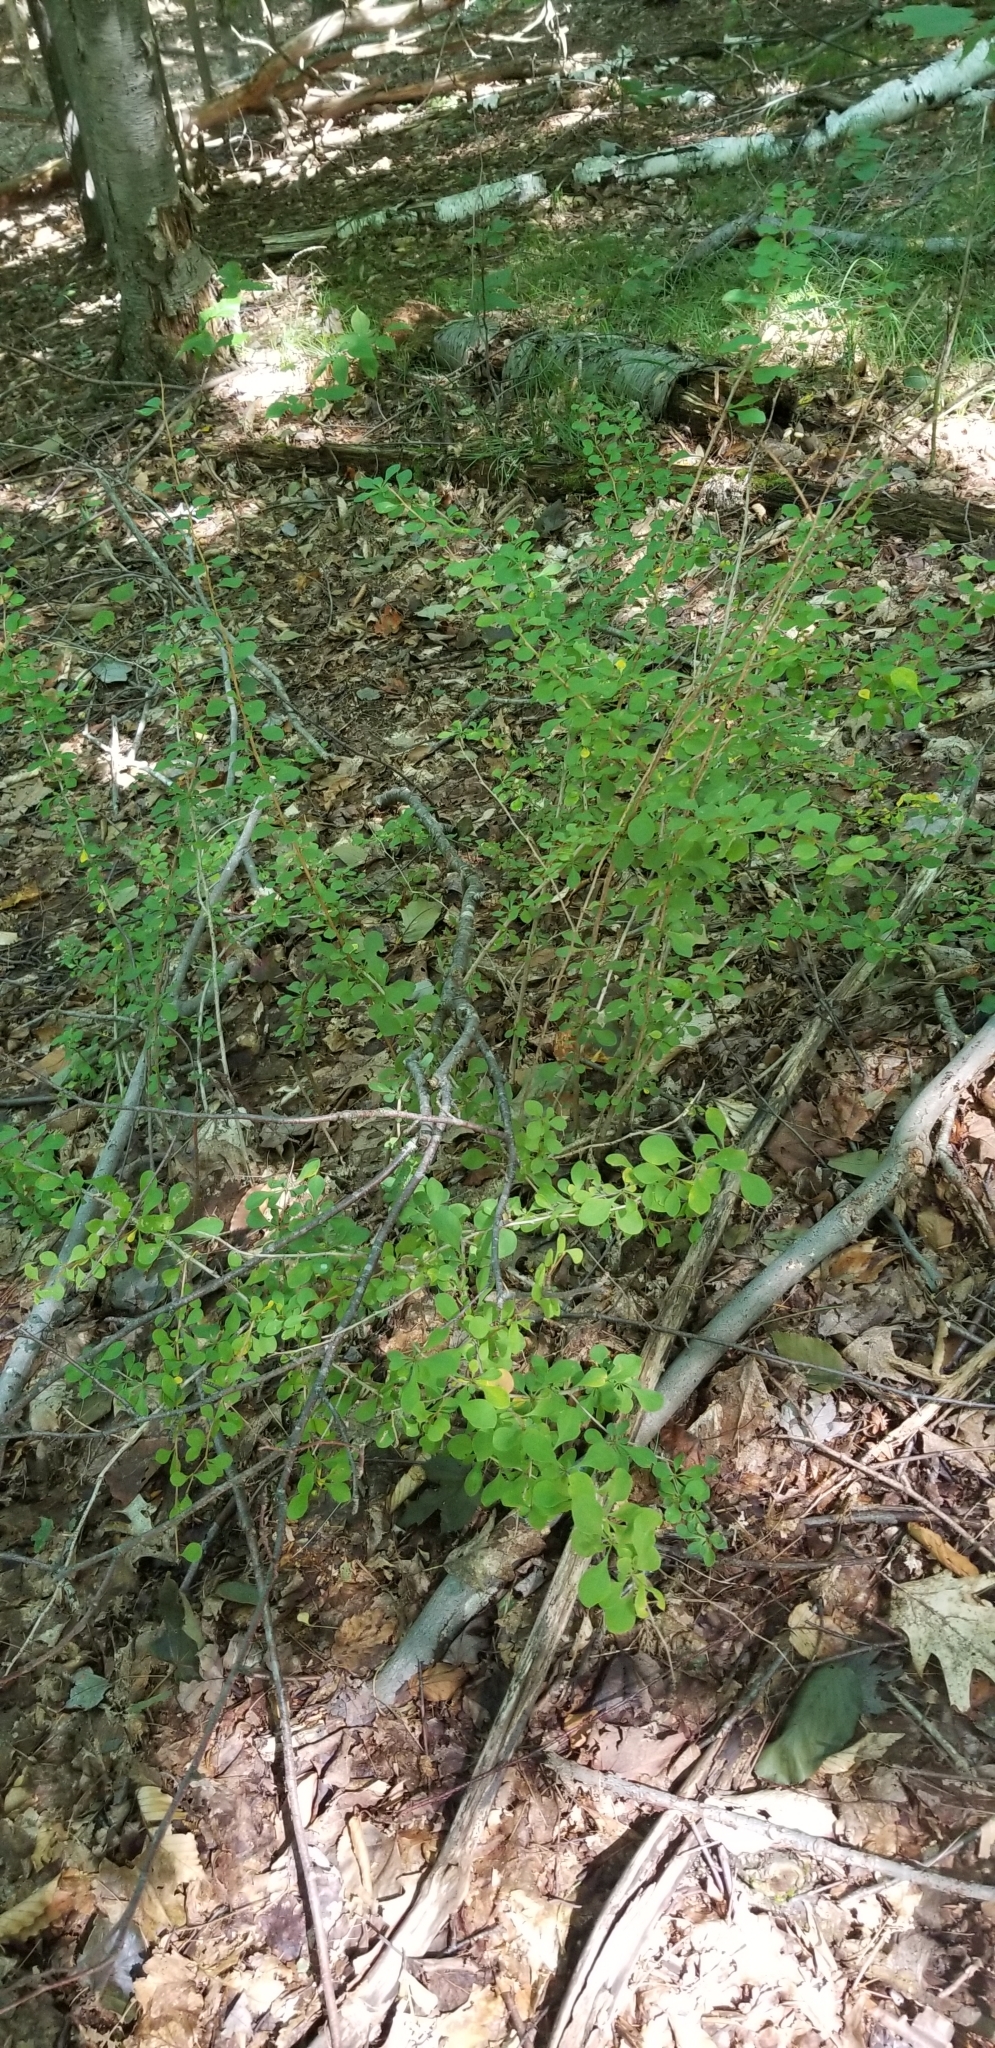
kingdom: Plantae
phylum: Tracheophyta
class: Magnoliopsida
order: Ranunculales
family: Berberidaceae
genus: Berberis
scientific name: Berberis thunbergii
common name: Japanese barberry
